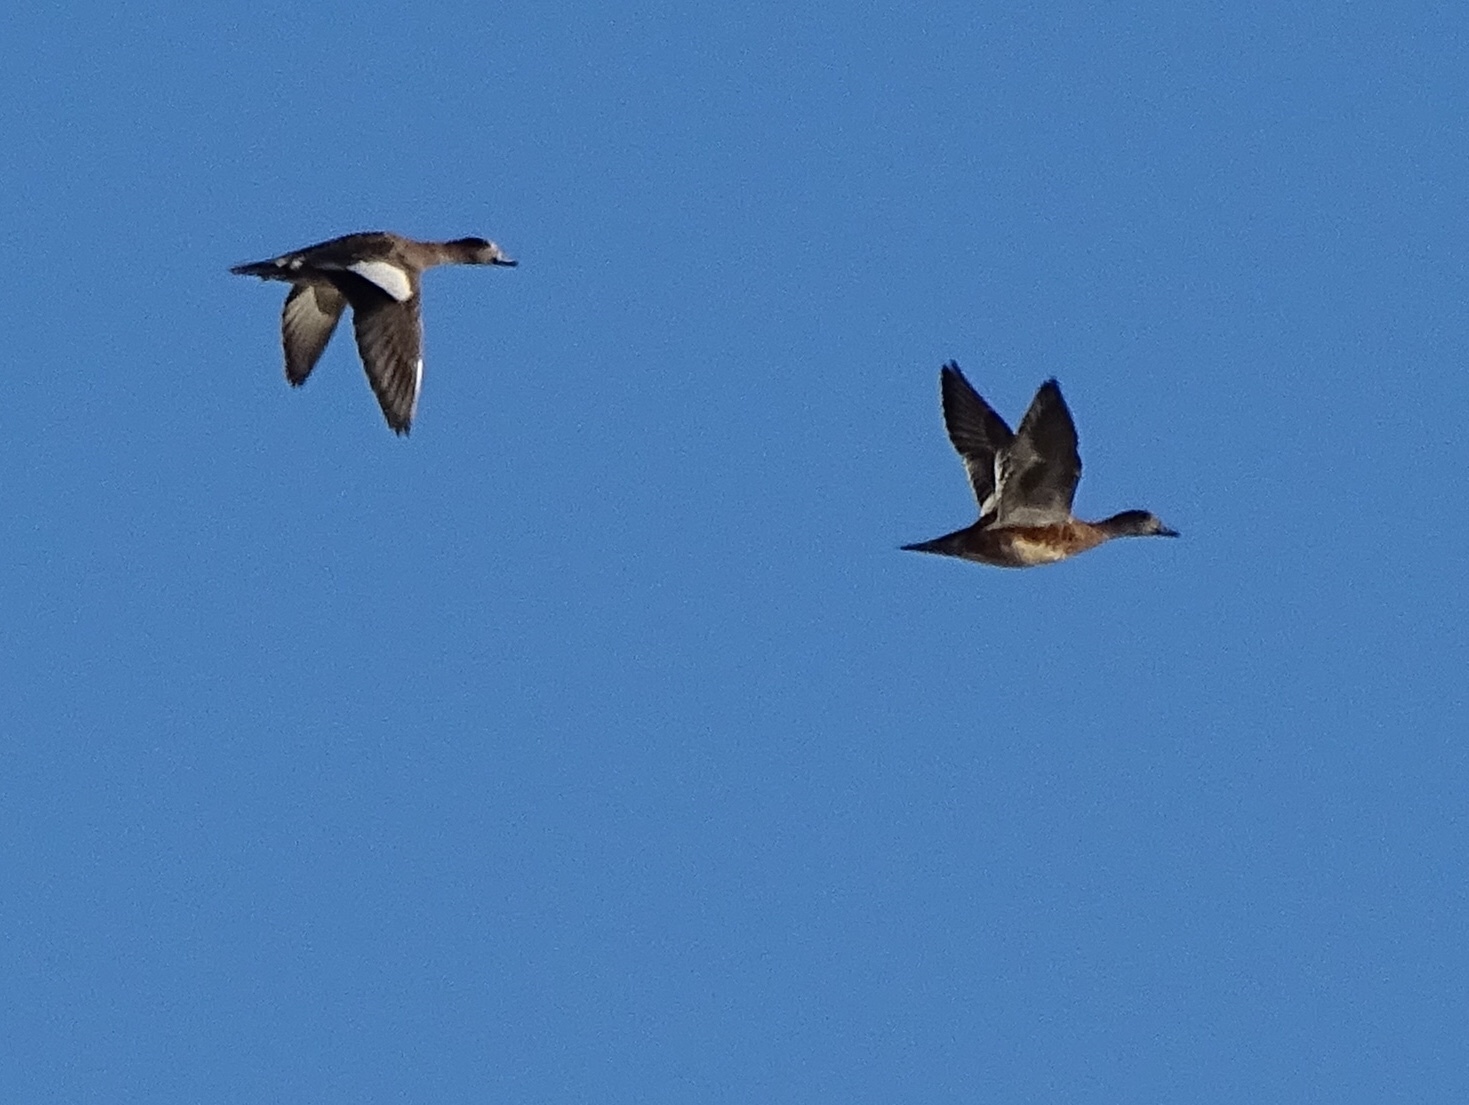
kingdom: Animalia
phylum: Chordata
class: Aves
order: Anseriformes
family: Anatidae
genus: Mareca
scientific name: Mareca americana
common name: American wigeon
